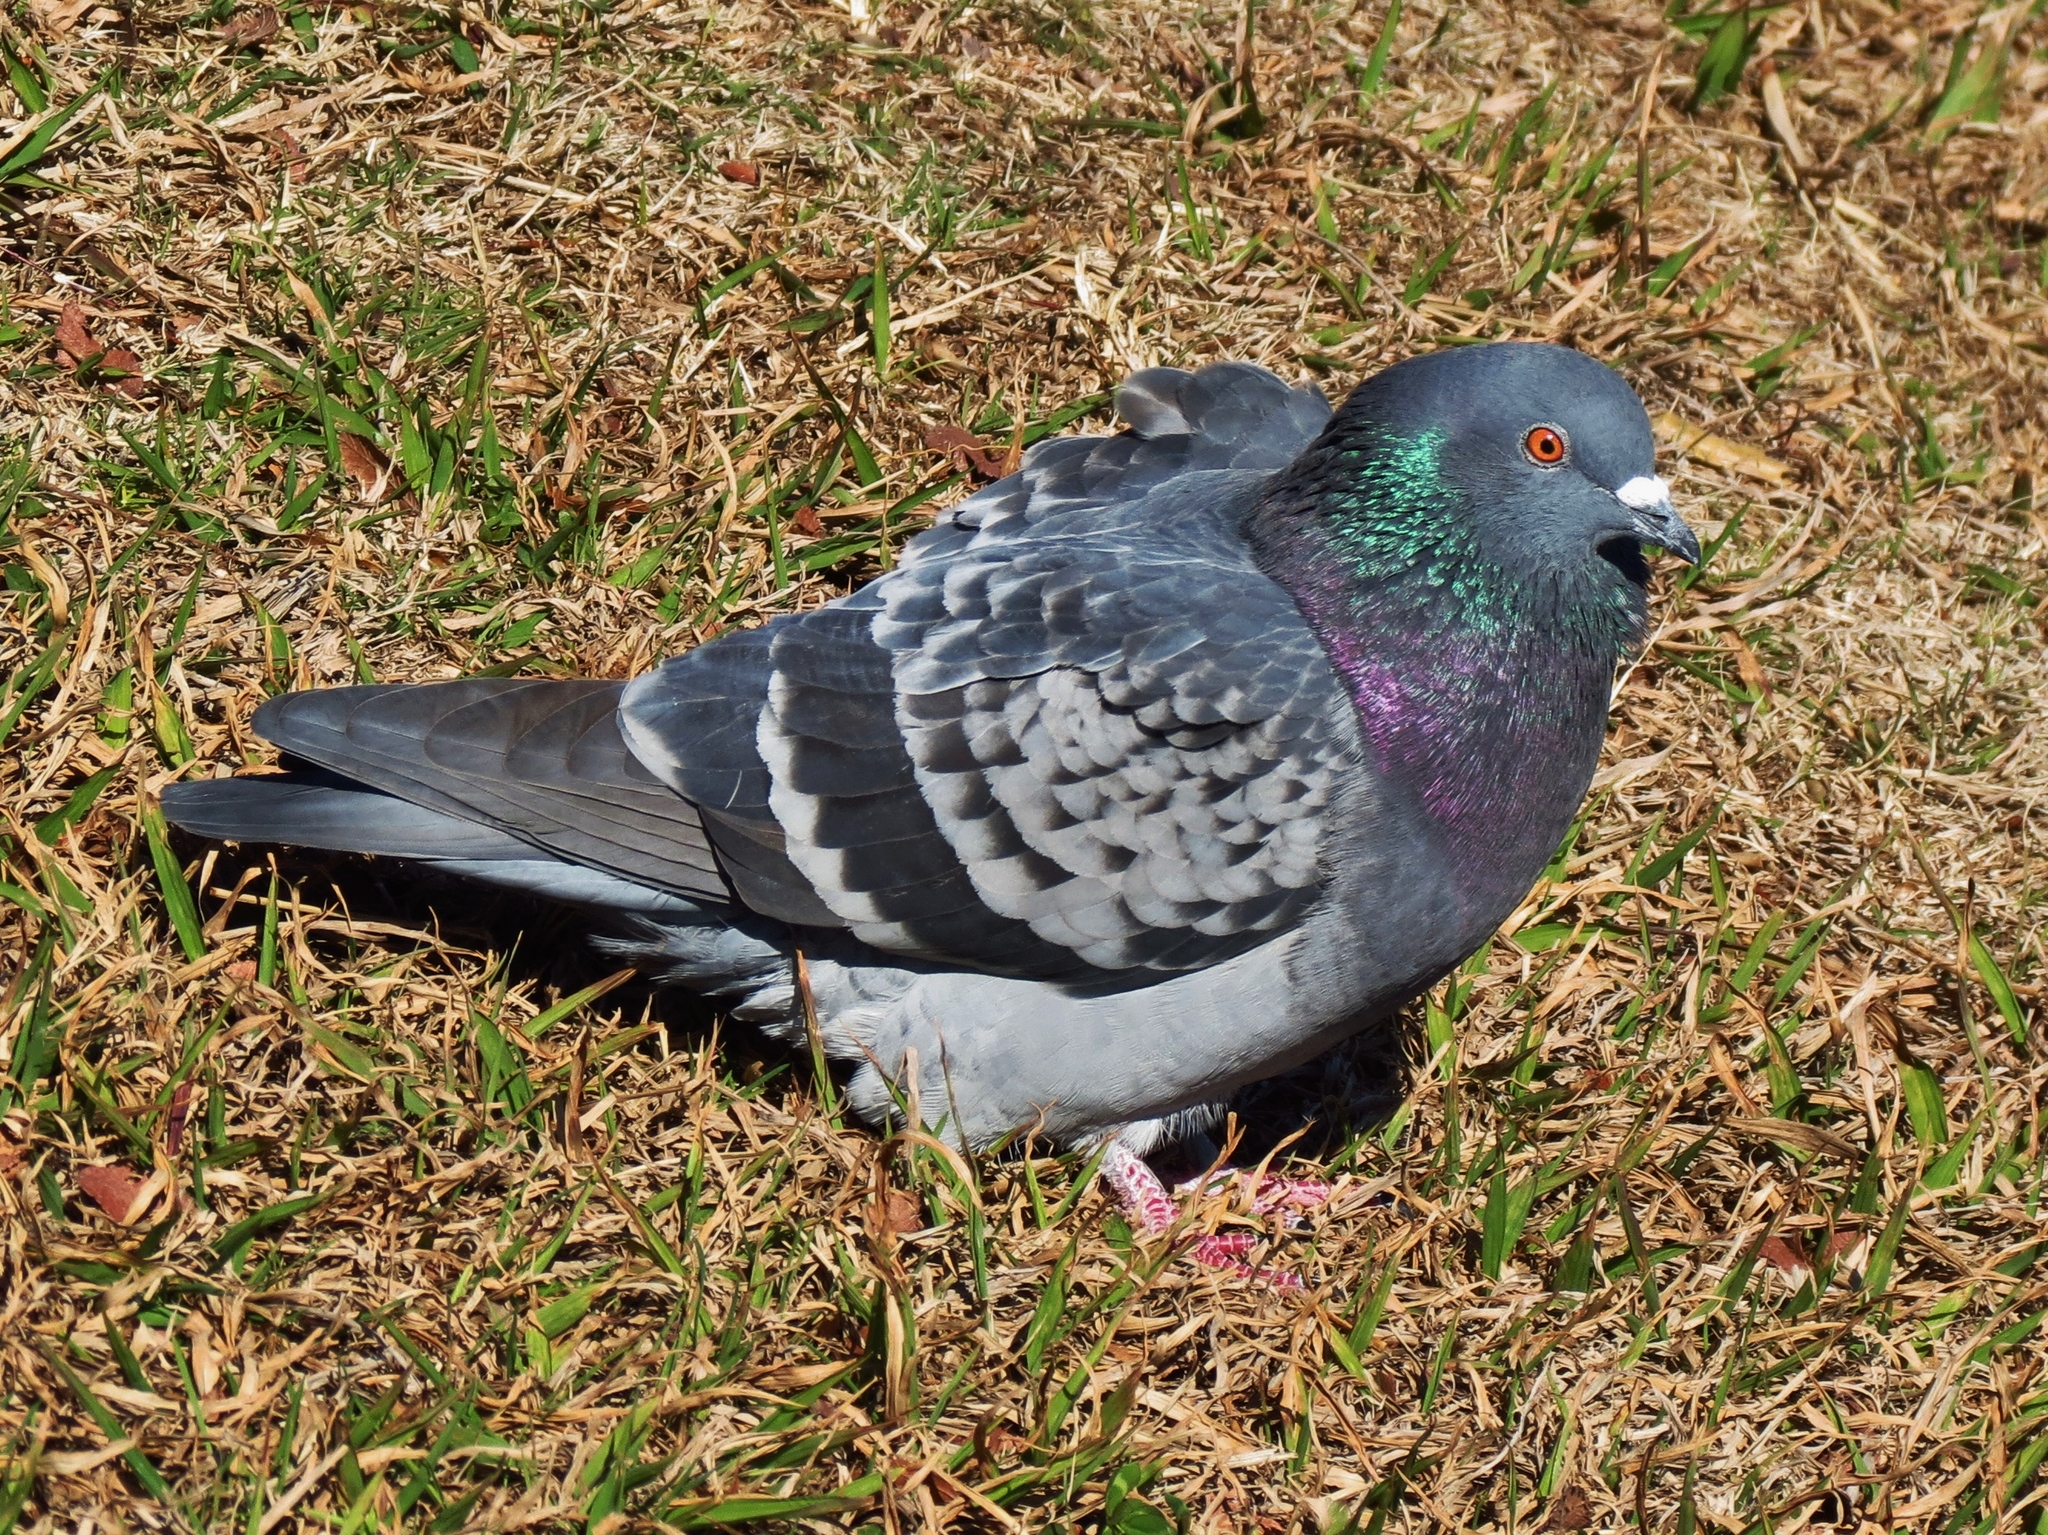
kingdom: Animalia
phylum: Chordata
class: Aves
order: Columbiformes
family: Columbidae
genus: Columba
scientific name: Columba livia
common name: Rock pigeon
